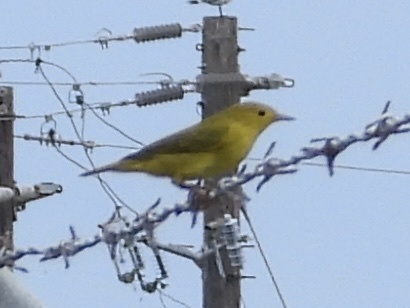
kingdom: Animalia
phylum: Chordata
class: Aves
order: Passeriformes
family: Parulidae
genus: Setophaga
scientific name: Setophaga petechia
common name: Yellow warbler
